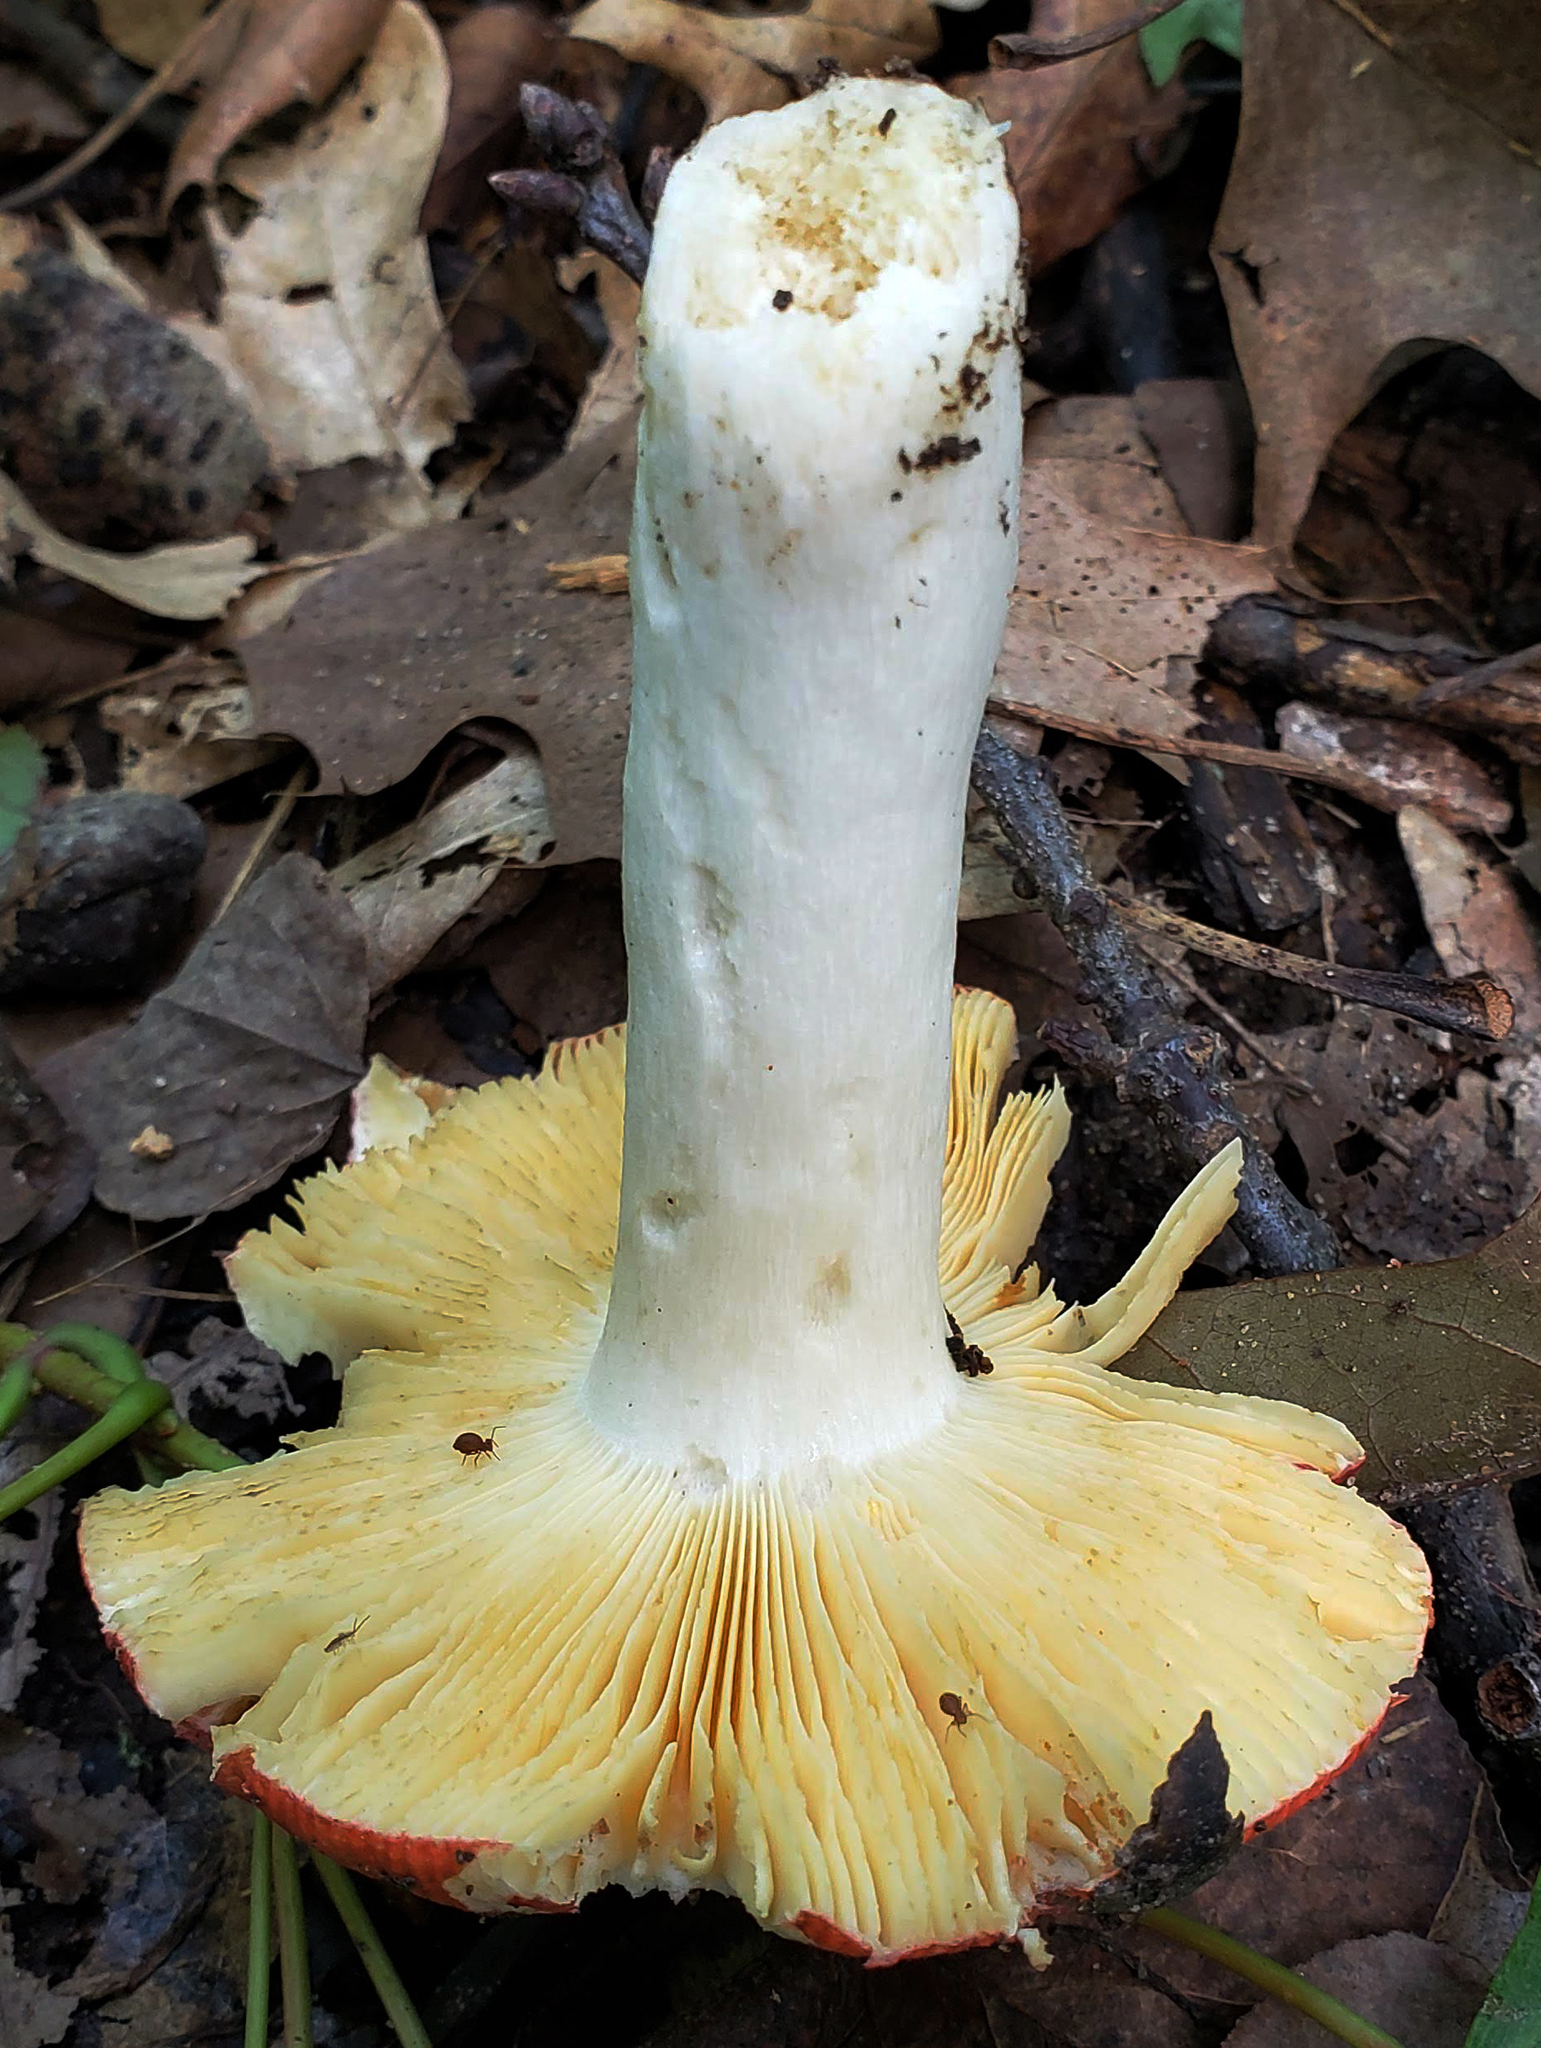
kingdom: Fungi
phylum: Basidiomycota
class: Agaricomycetes
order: Russulales
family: Russulaceae
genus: Russula
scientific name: Russula
